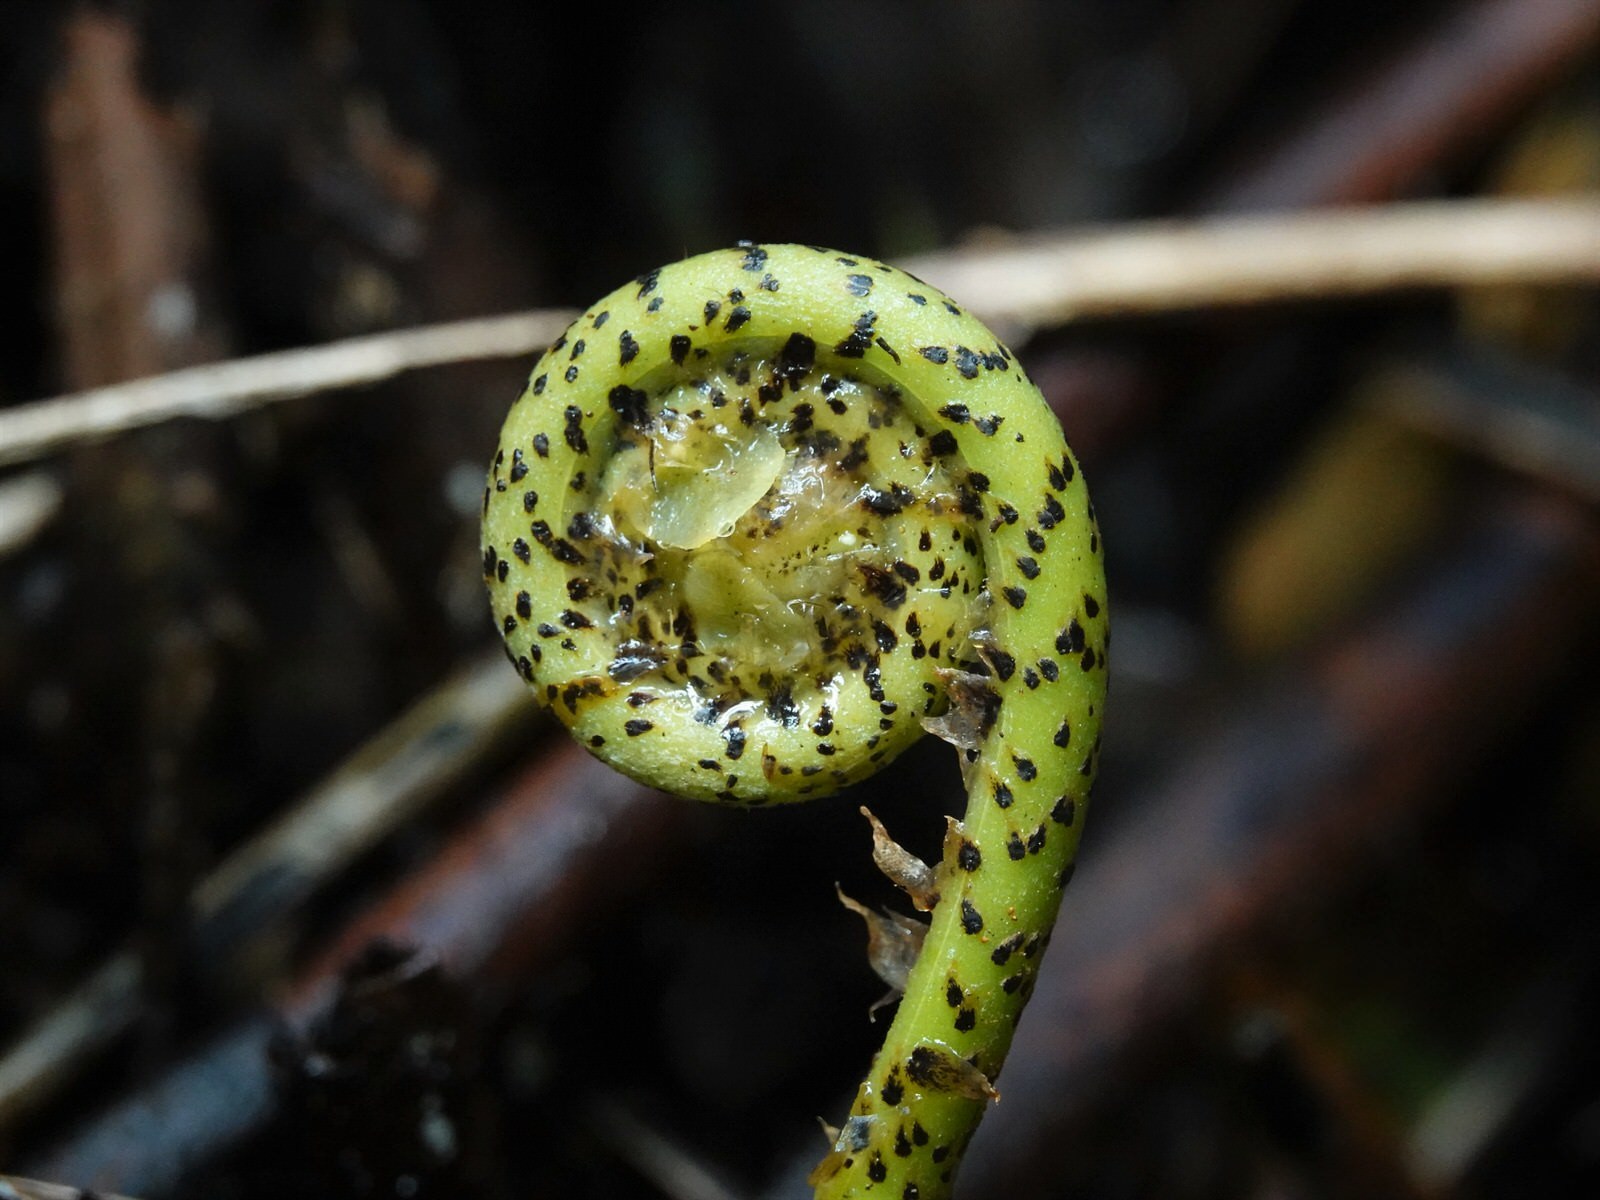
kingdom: Plantae
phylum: Tracheophyta
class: Polypodiopsida
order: Polypodiales
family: Blechnaceae
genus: Parablechnum
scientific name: Parablechnum novae-zelandiae
